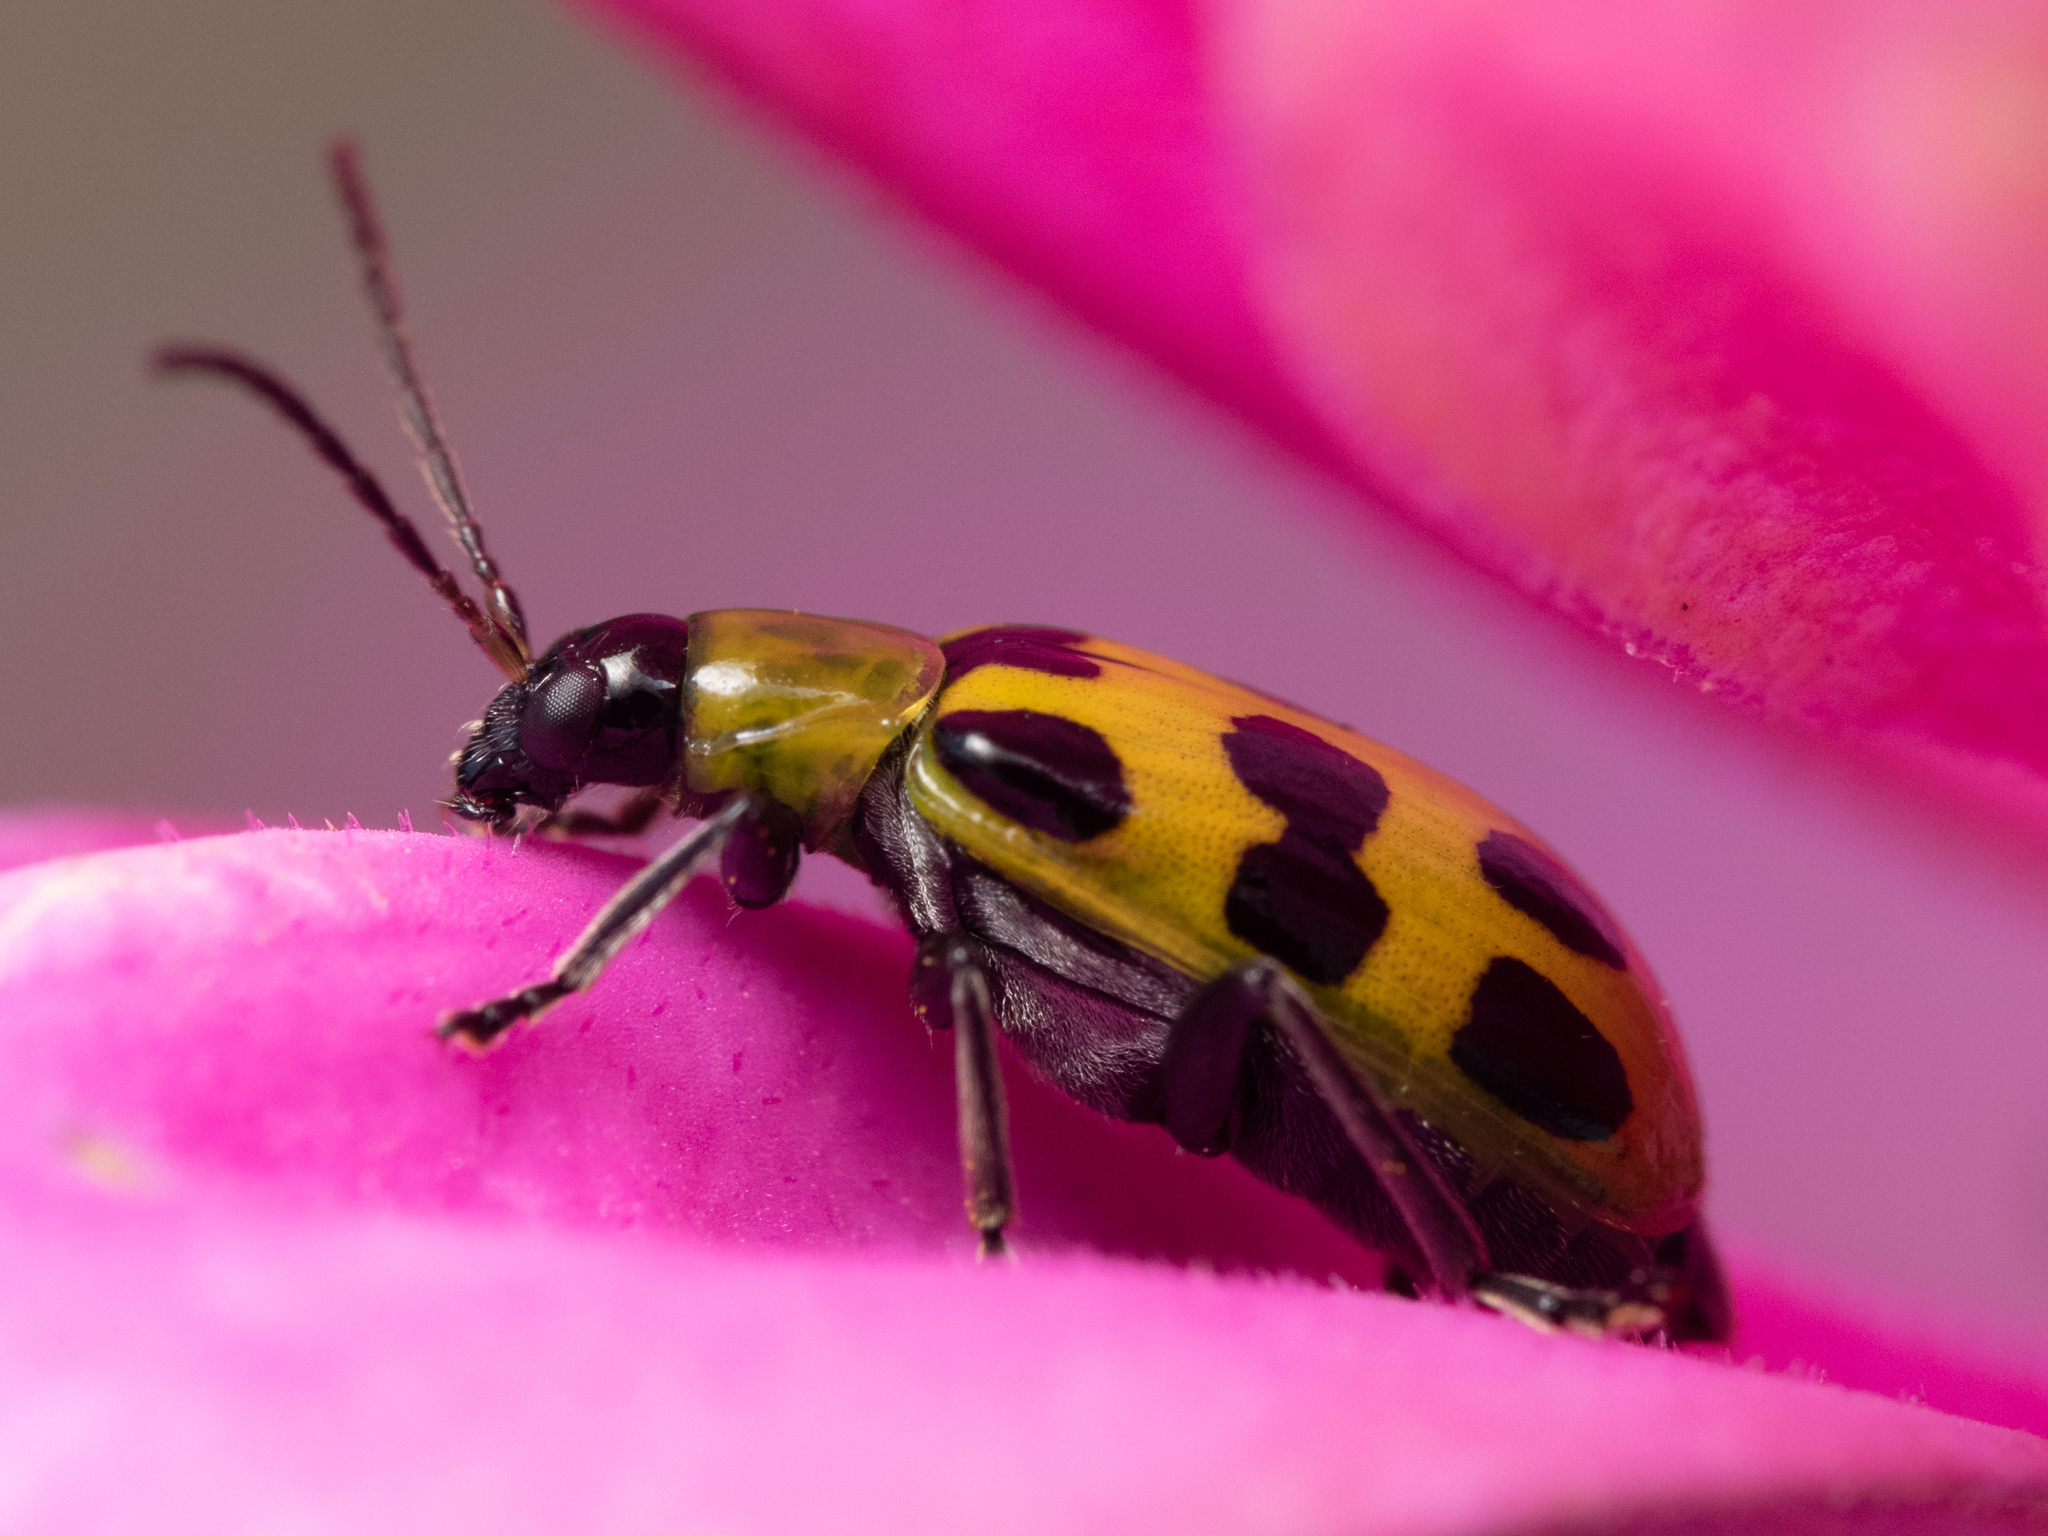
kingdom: Animalia
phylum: Arthropoda
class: Insecta
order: Coleoptera
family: Chrysomelidae
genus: Diabrotica
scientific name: Diabrotica undecimpunctata
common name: Spotted cucumber beetle
